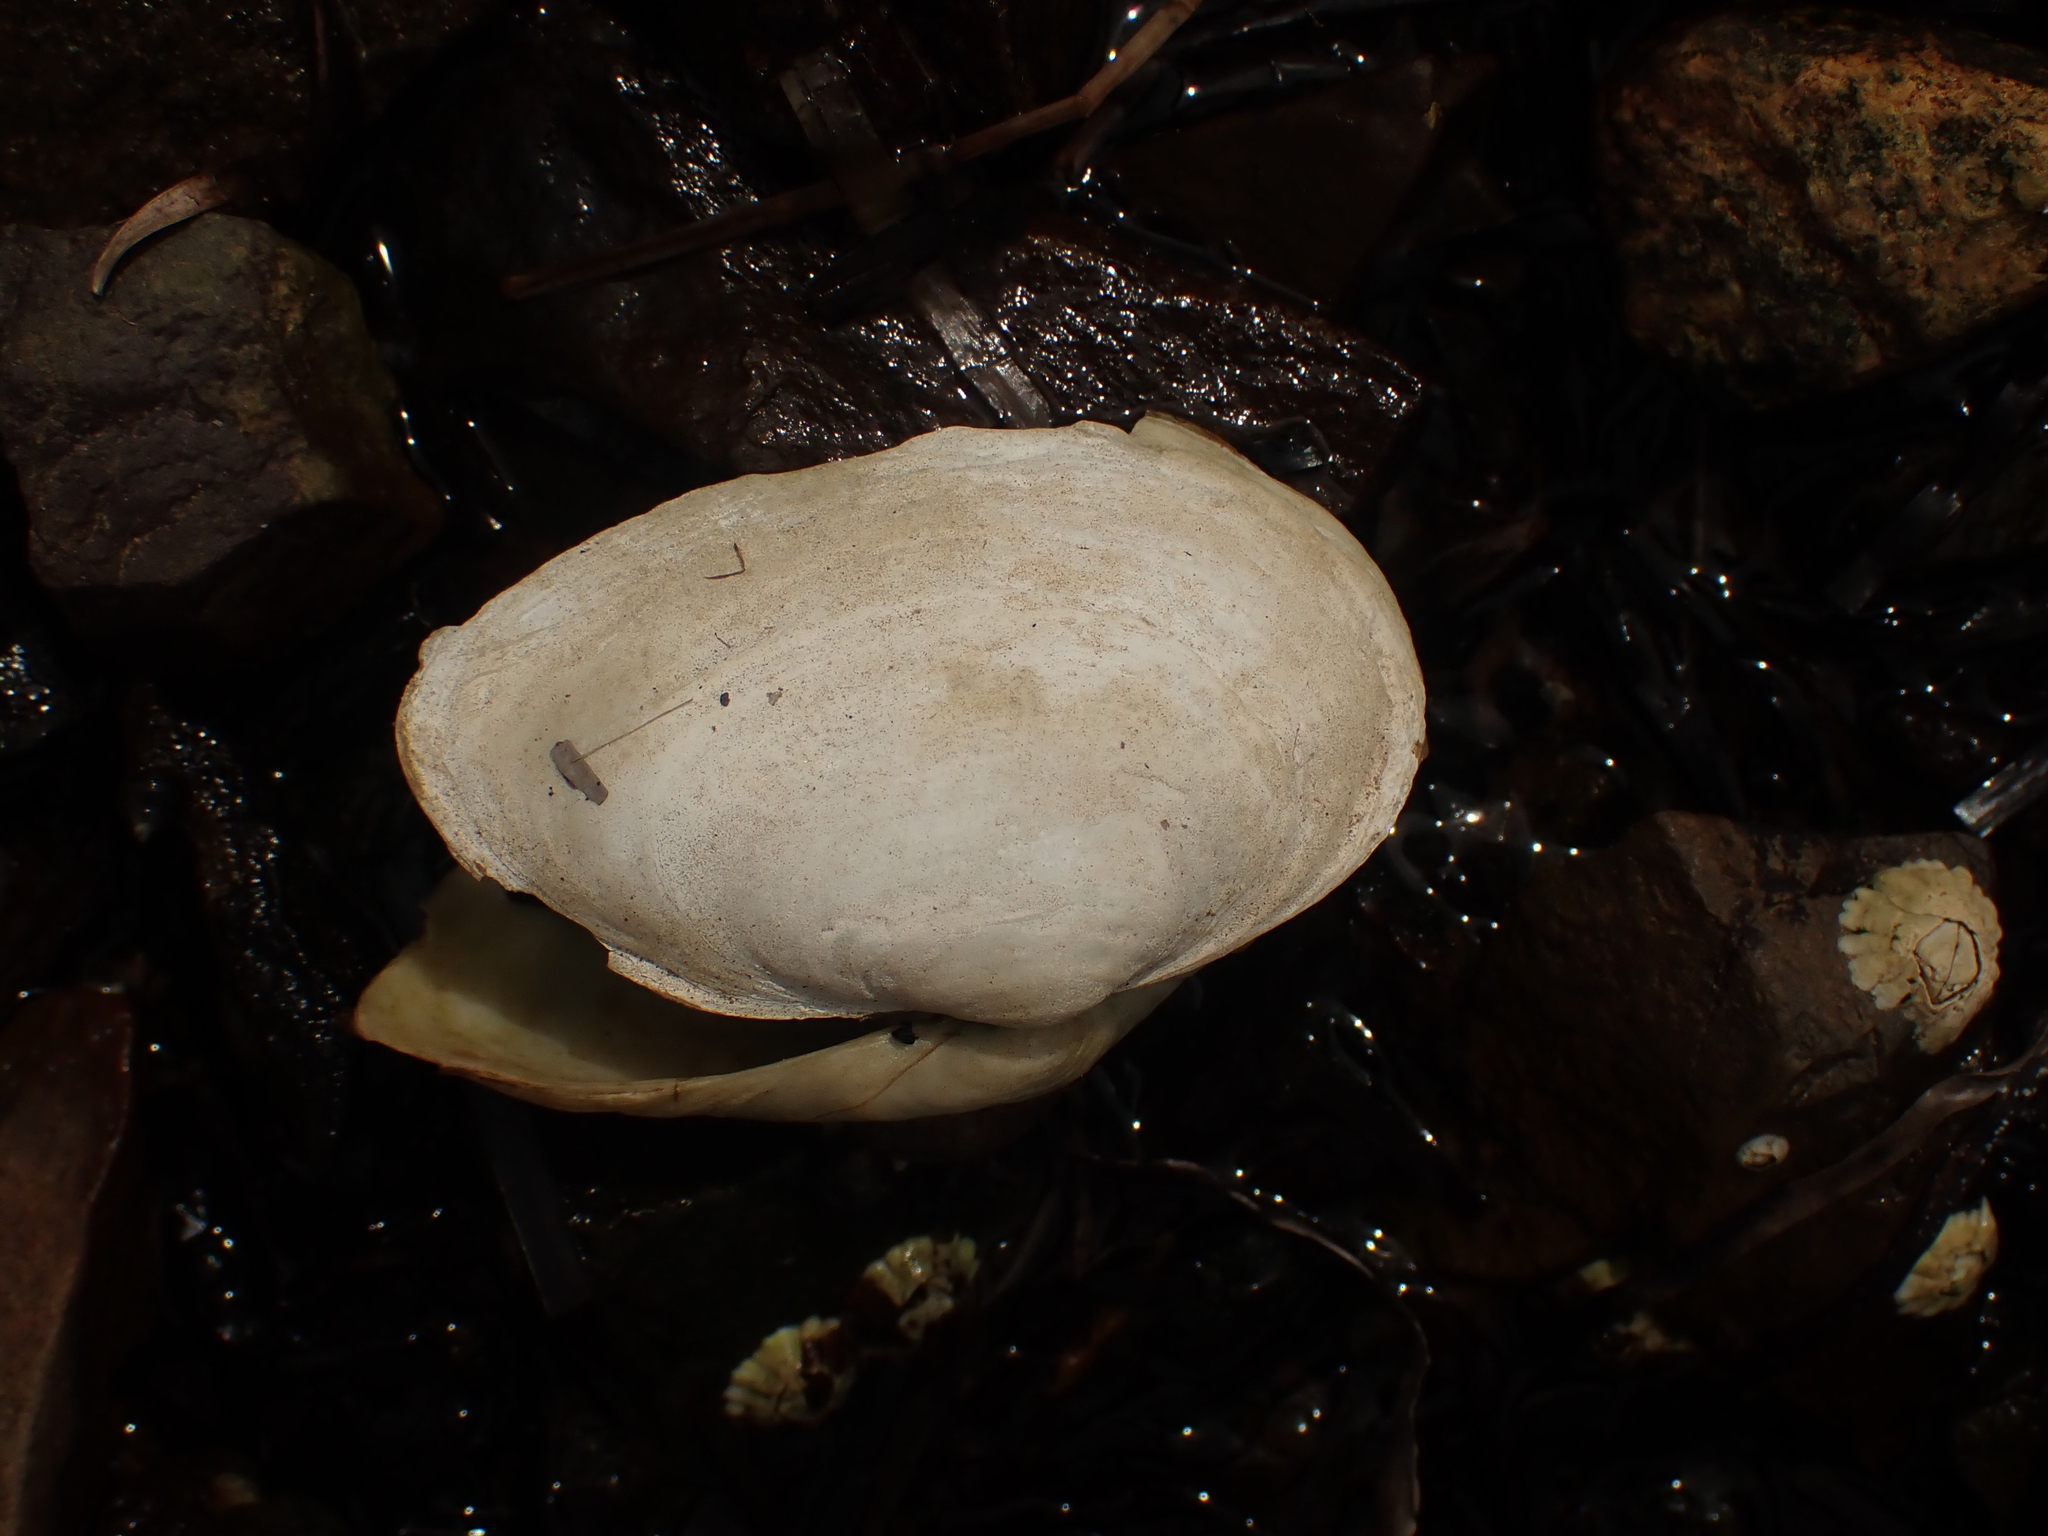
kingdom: Animalia
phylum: Mollusca
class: Bivalvia
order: Myida
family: Myidae
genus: Mya
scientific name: Mya arenaria
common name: Soft-shelled clam
